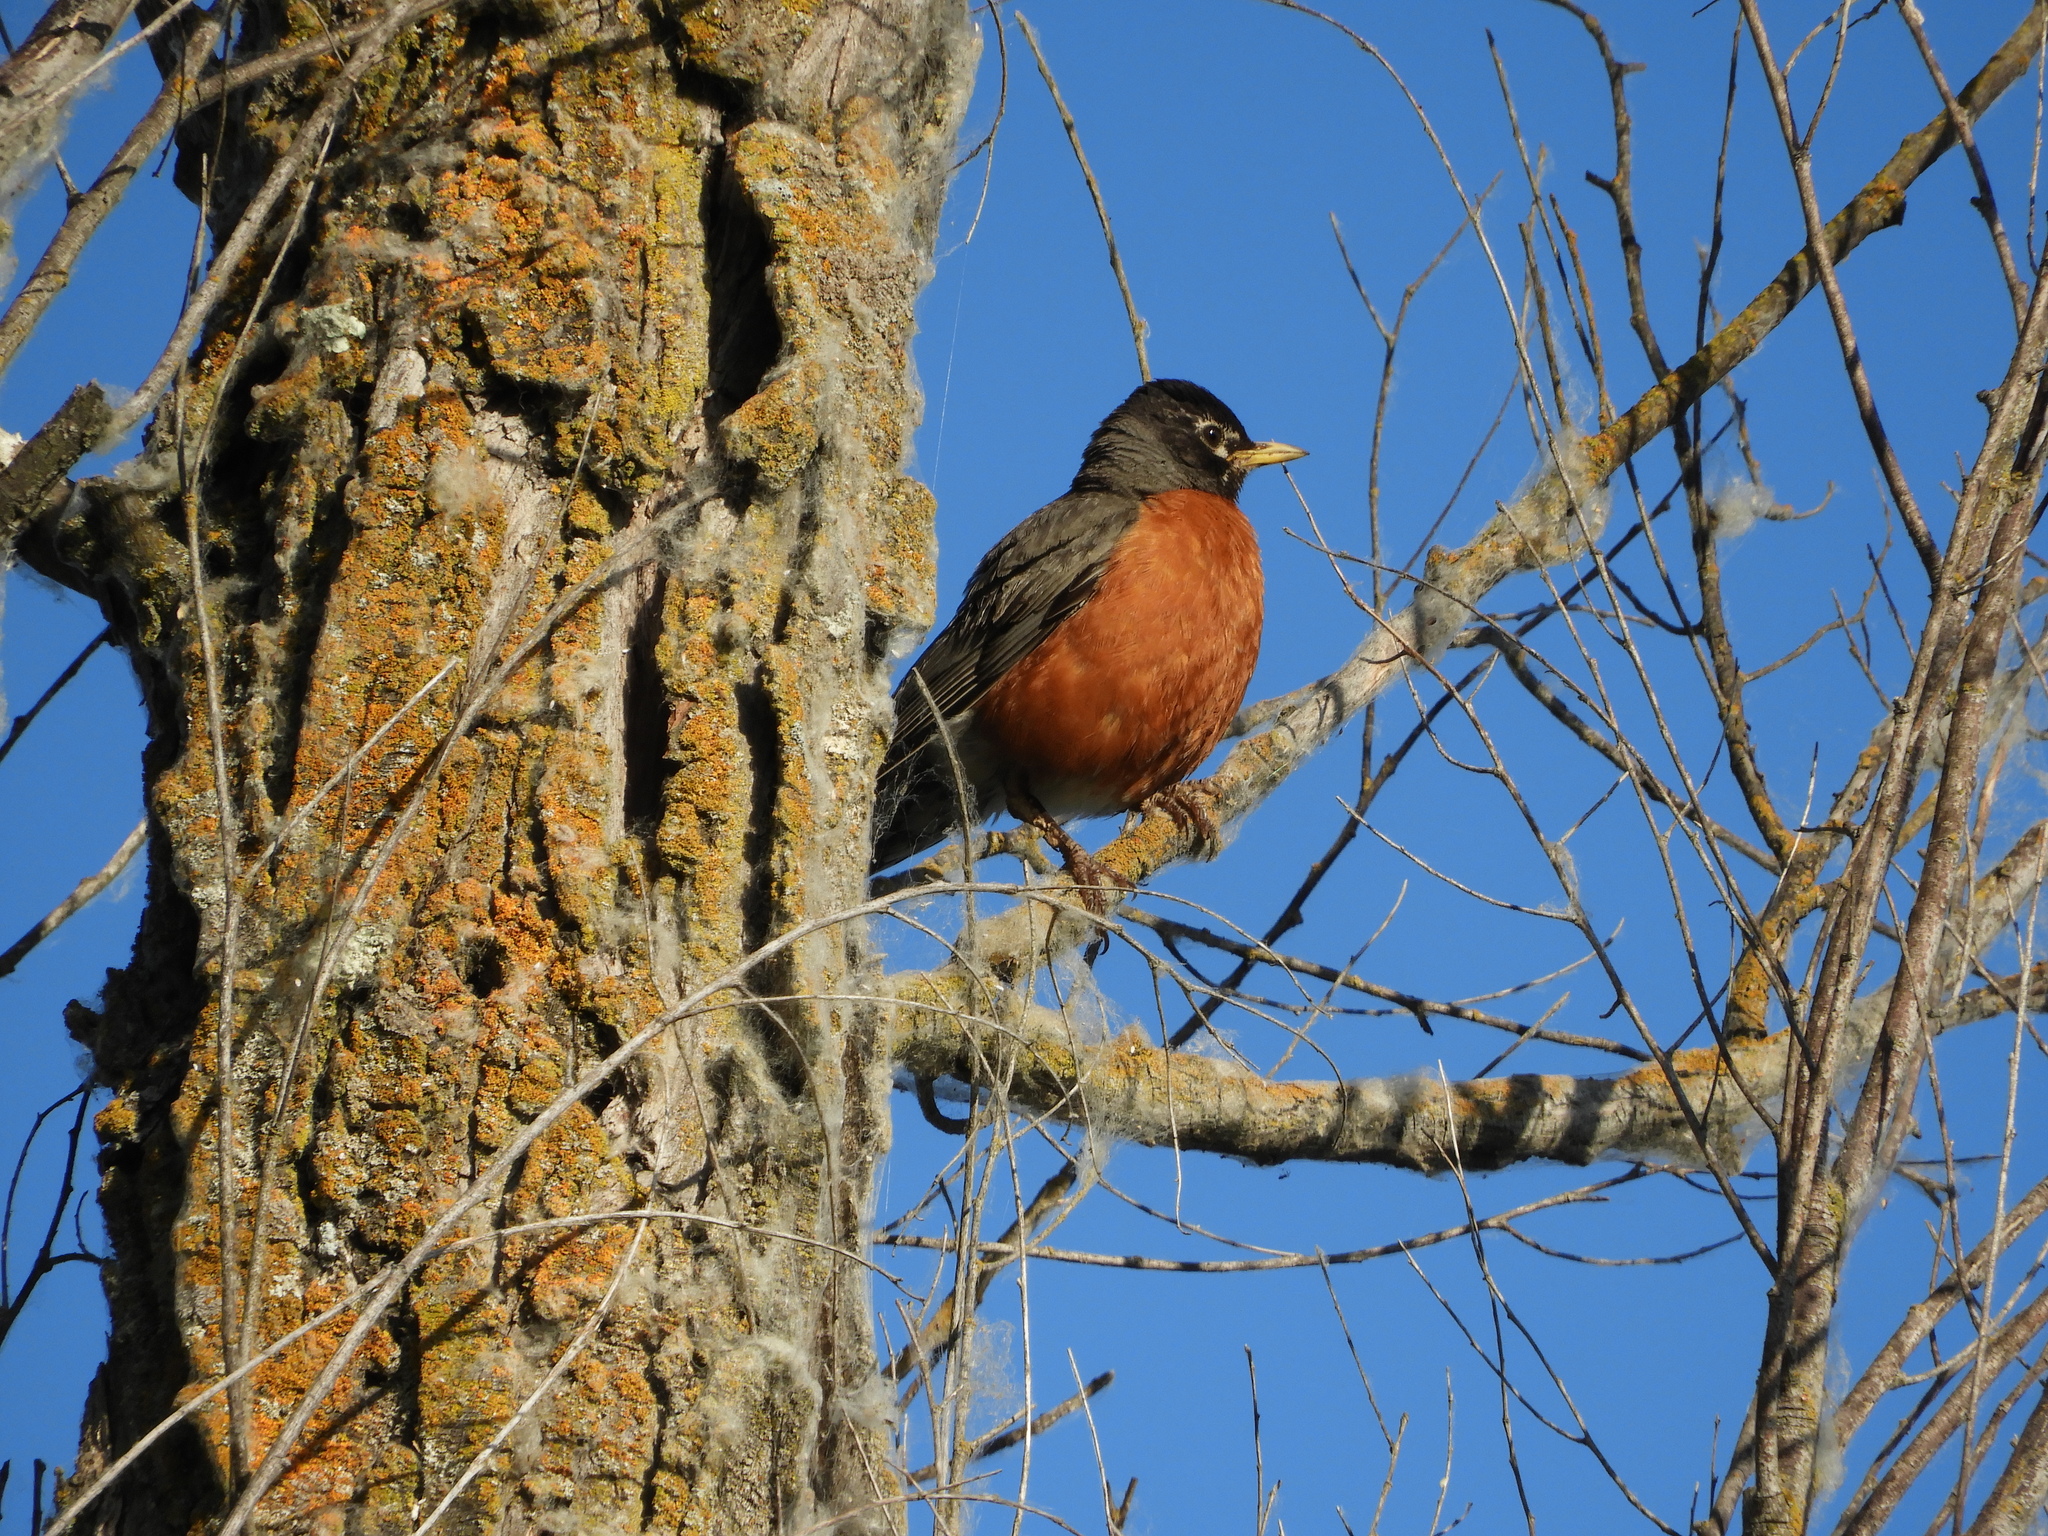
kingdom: Animalia
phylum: Chordata
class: Aves
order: Passeriformes
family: Turdidae
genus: Turdus
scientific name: Turdus migratorius
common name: American robin
